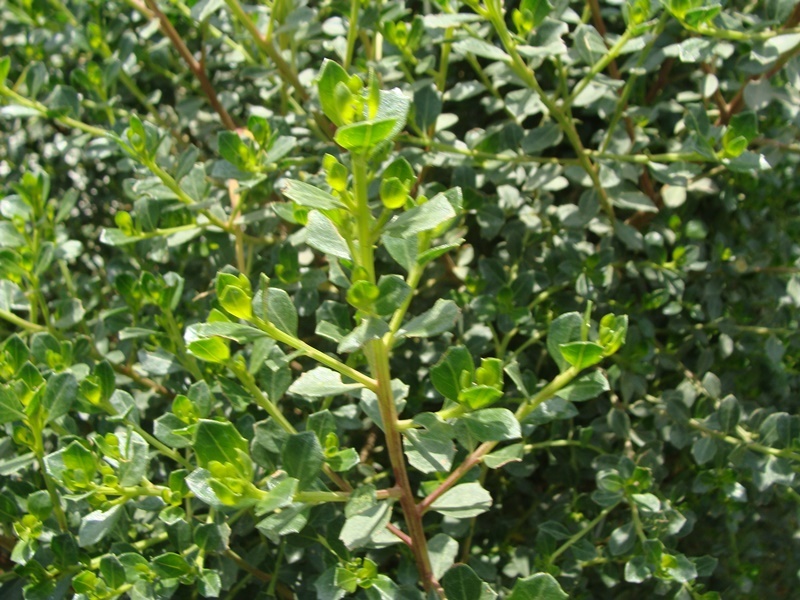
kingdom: Plantae
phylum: Tracheophyta
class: Magnoliopsida
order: Asterales
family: Asteraceae
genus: Baccharis
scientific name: Baccharis conferta
